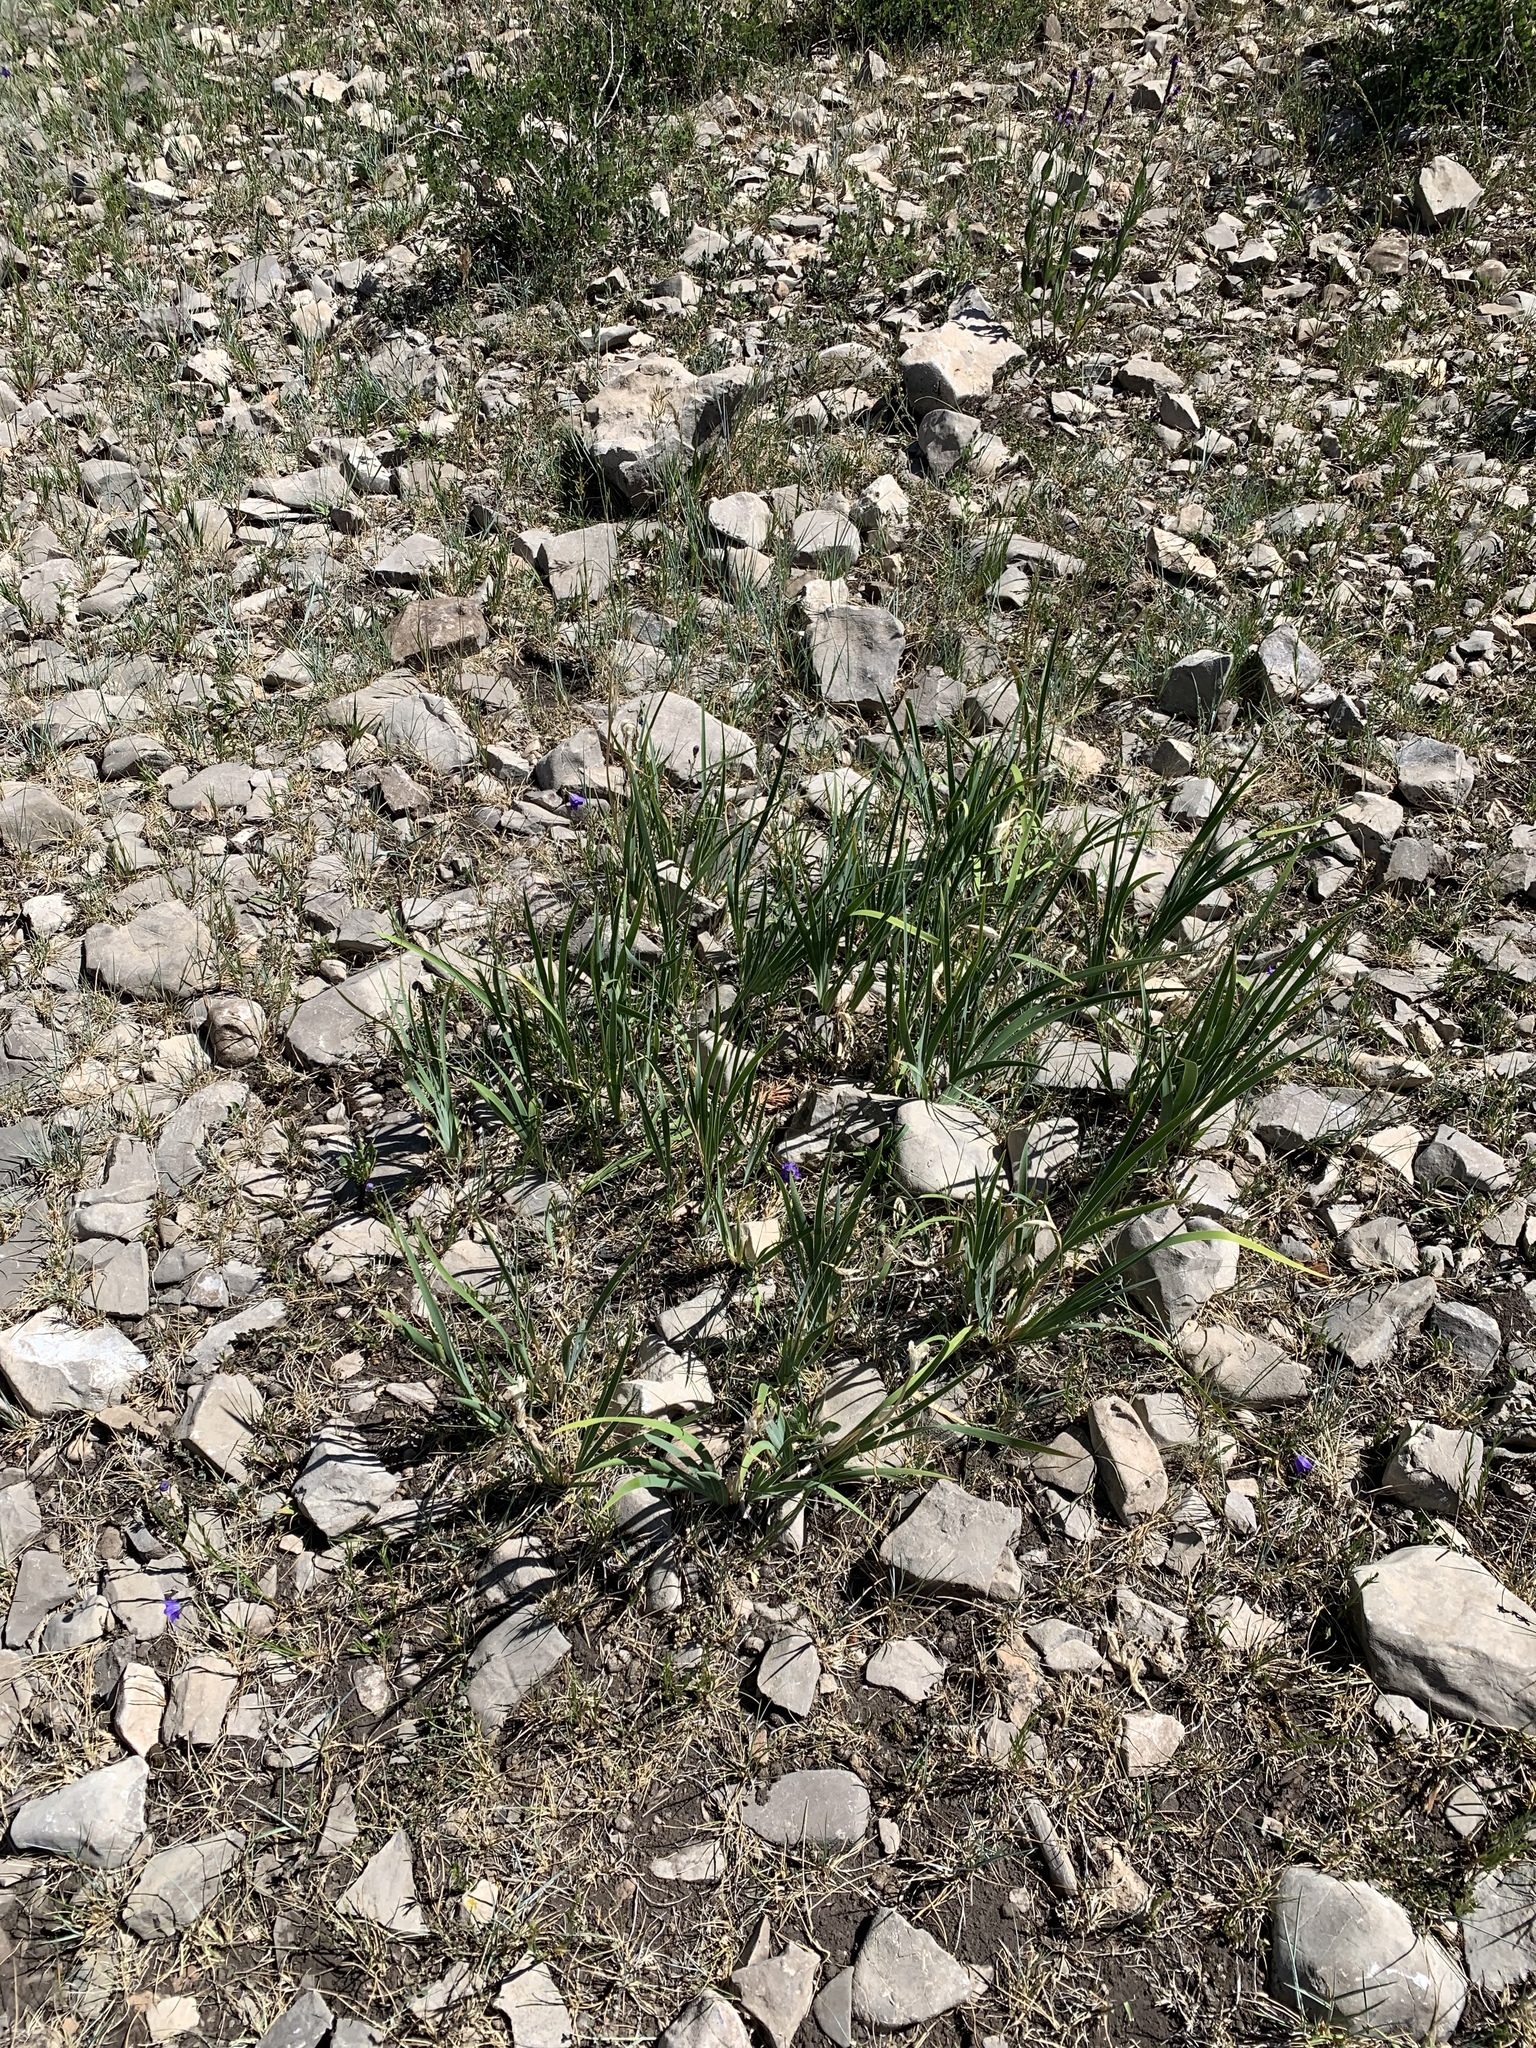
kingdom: Plantae
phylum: Tracheophyta
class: Liliopsida
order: Asparagales
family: Iridaceae
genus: Iris
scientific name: Iris missouriensis
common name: Rocky mountain iris
